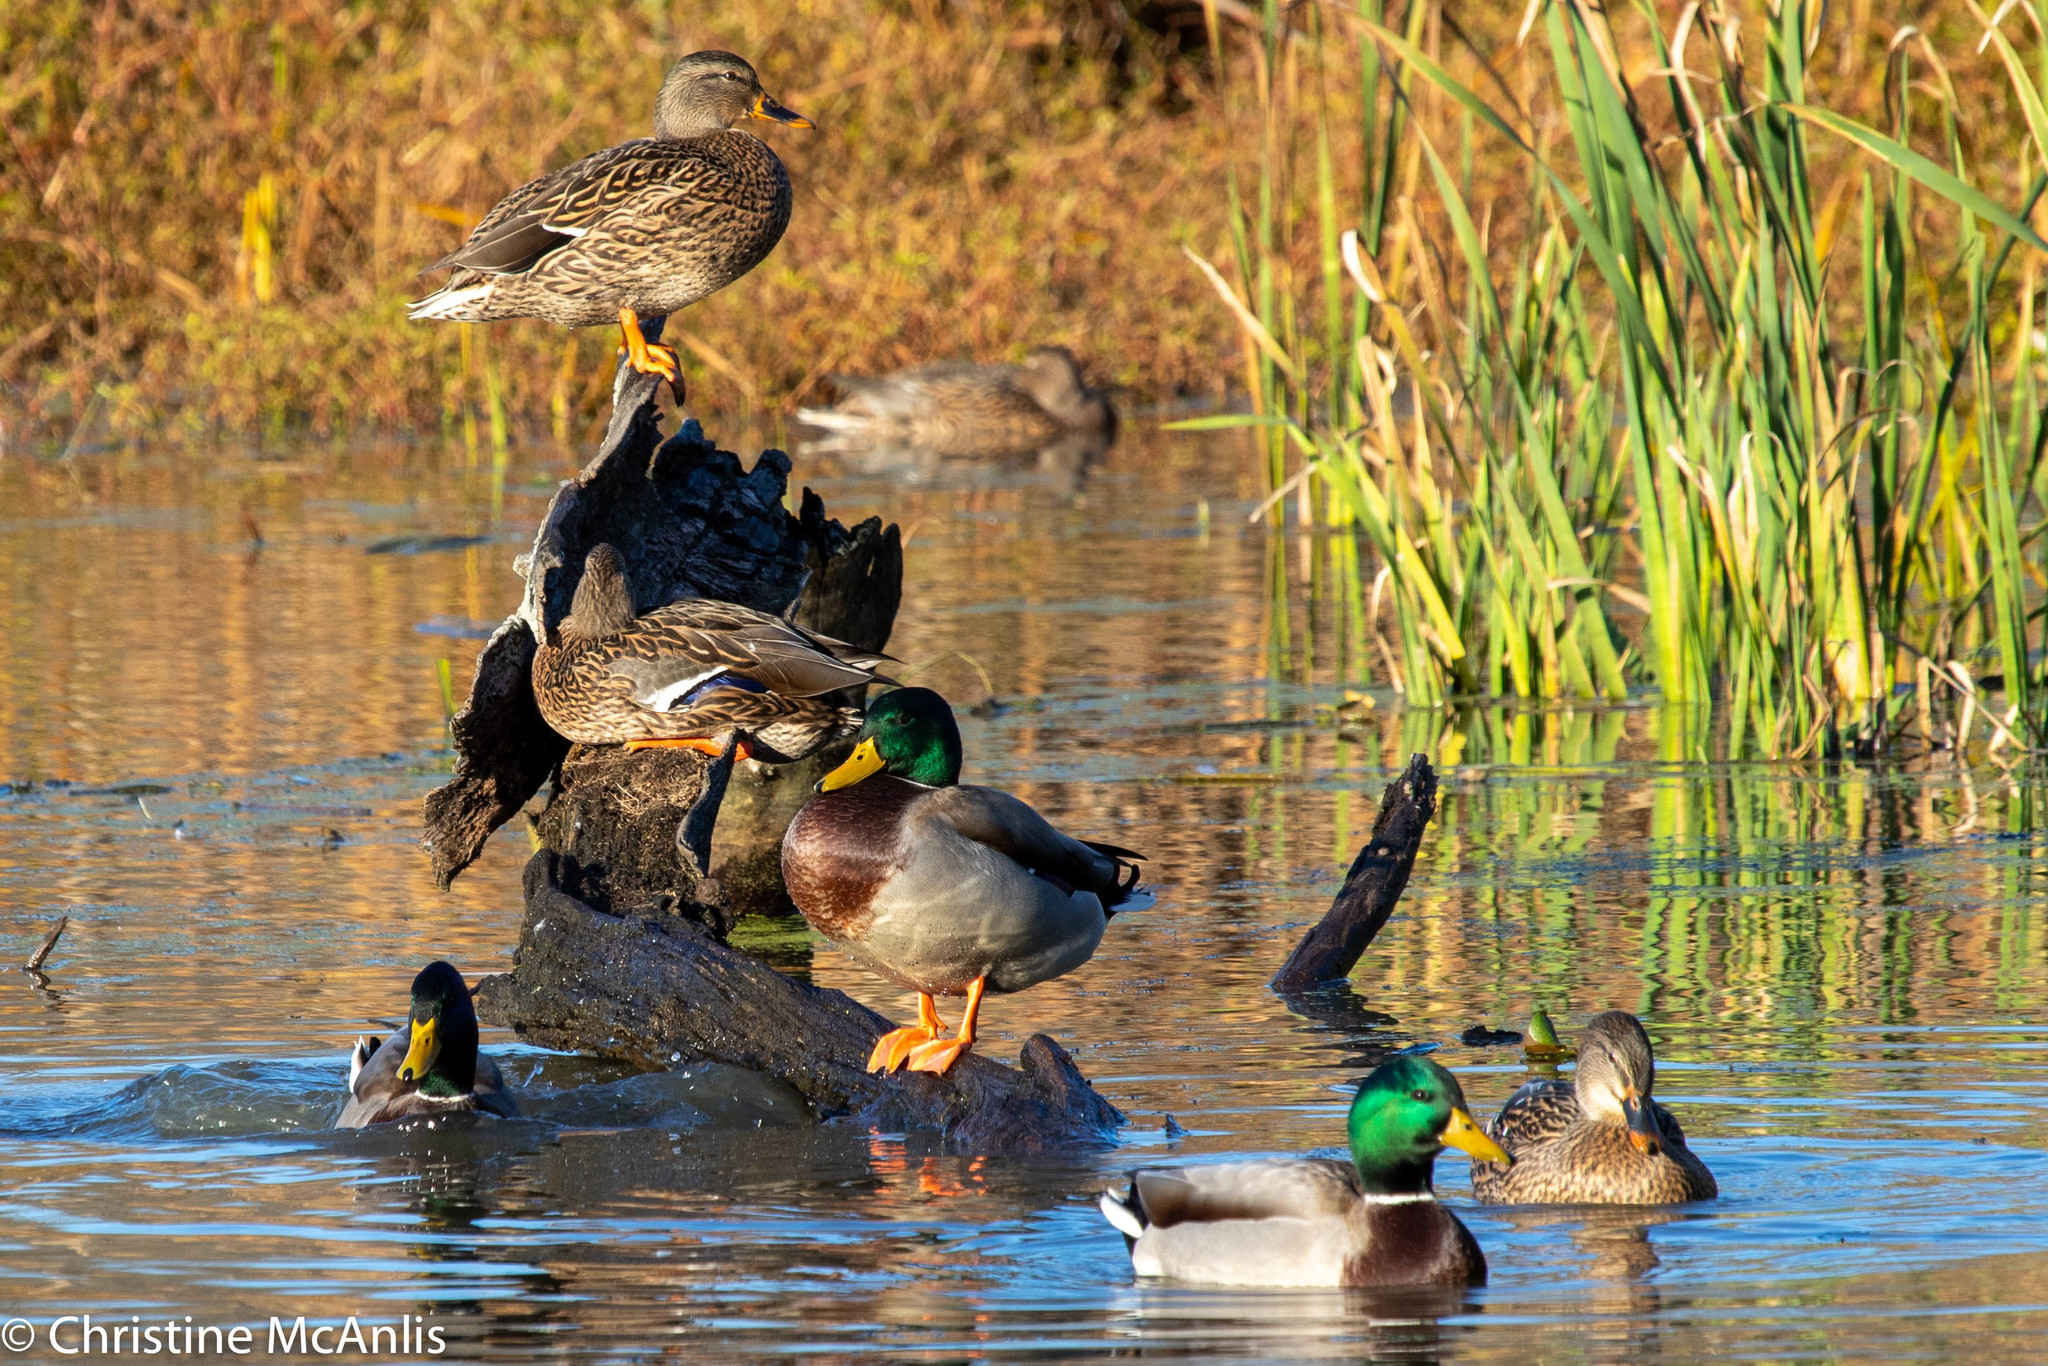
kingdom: Animalia
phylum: Chordata
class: Aves
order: Anseriformes
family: Anatidae
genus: Anas
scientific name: Anas platyrhynchos
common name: Mallard
